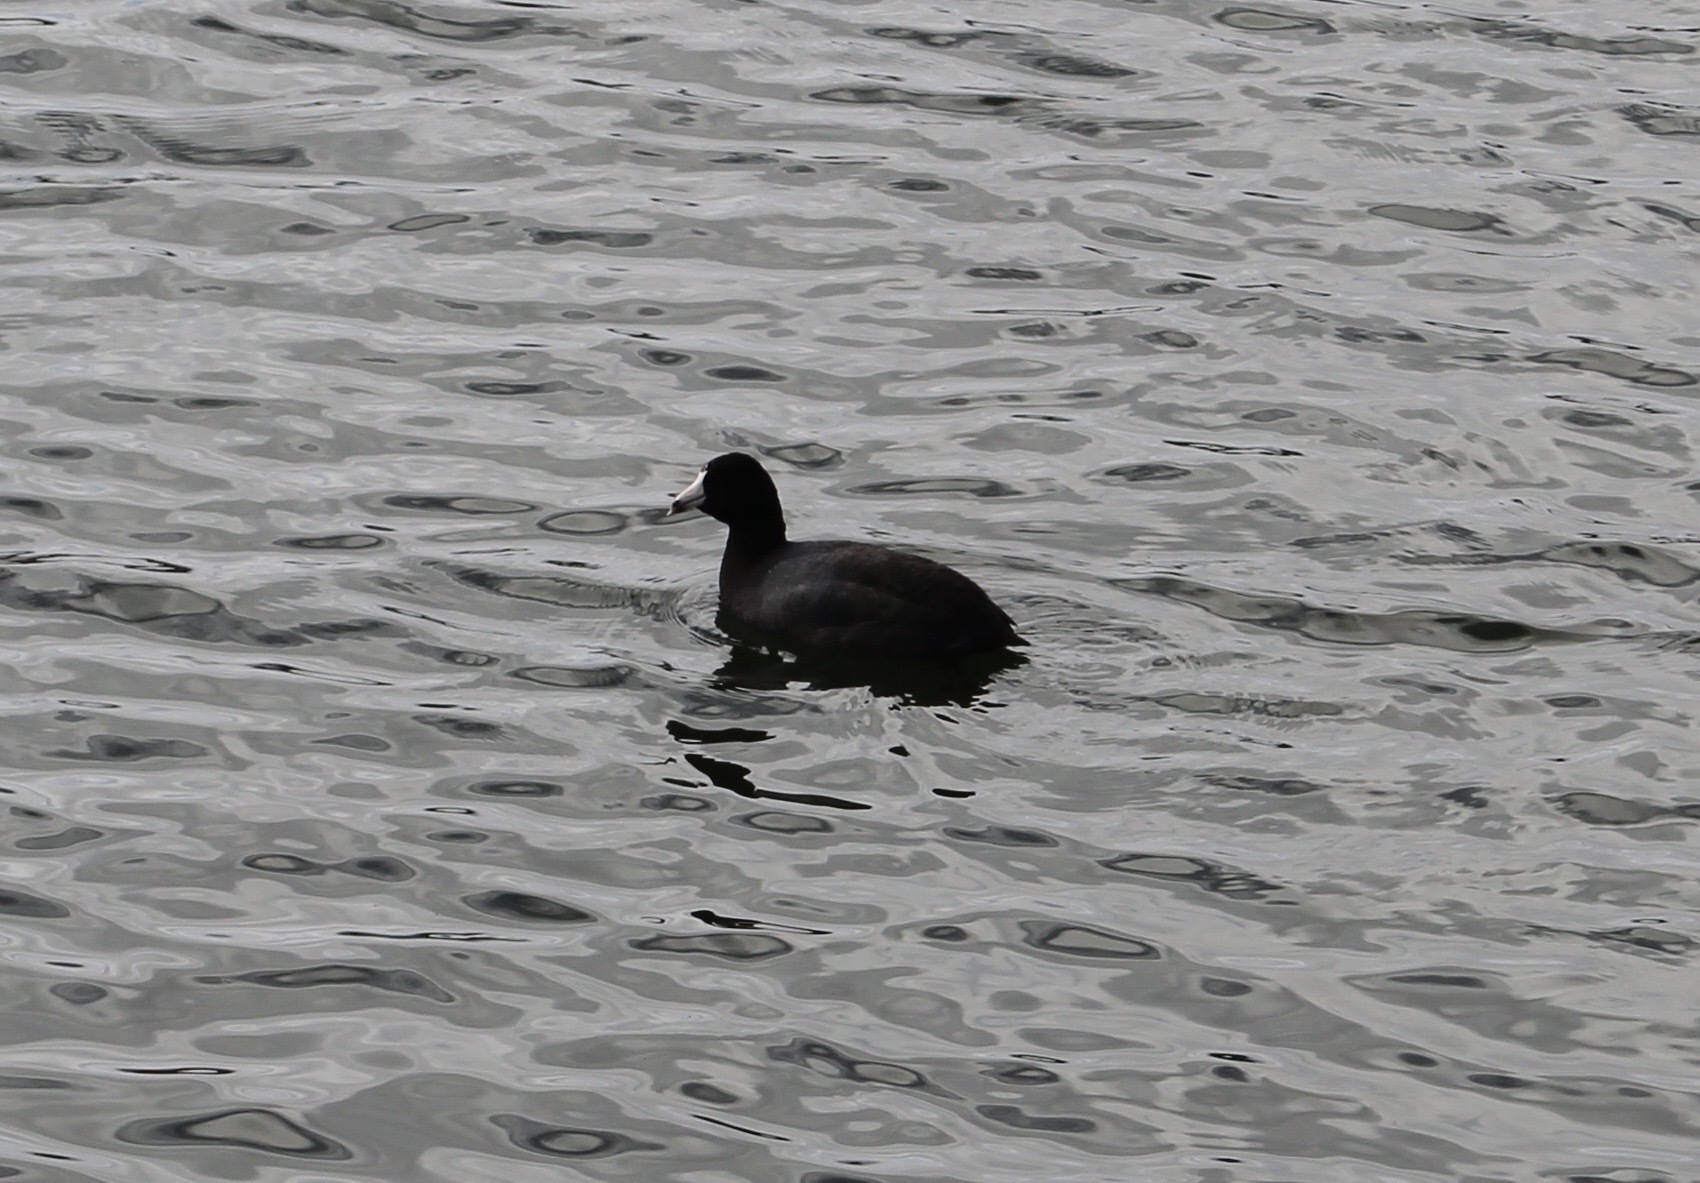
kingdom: Animalia
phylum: Chordata
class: Aves
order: Gruiformes
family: Rallidae
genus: Fulica
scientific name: Fulica americana
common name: American coot
